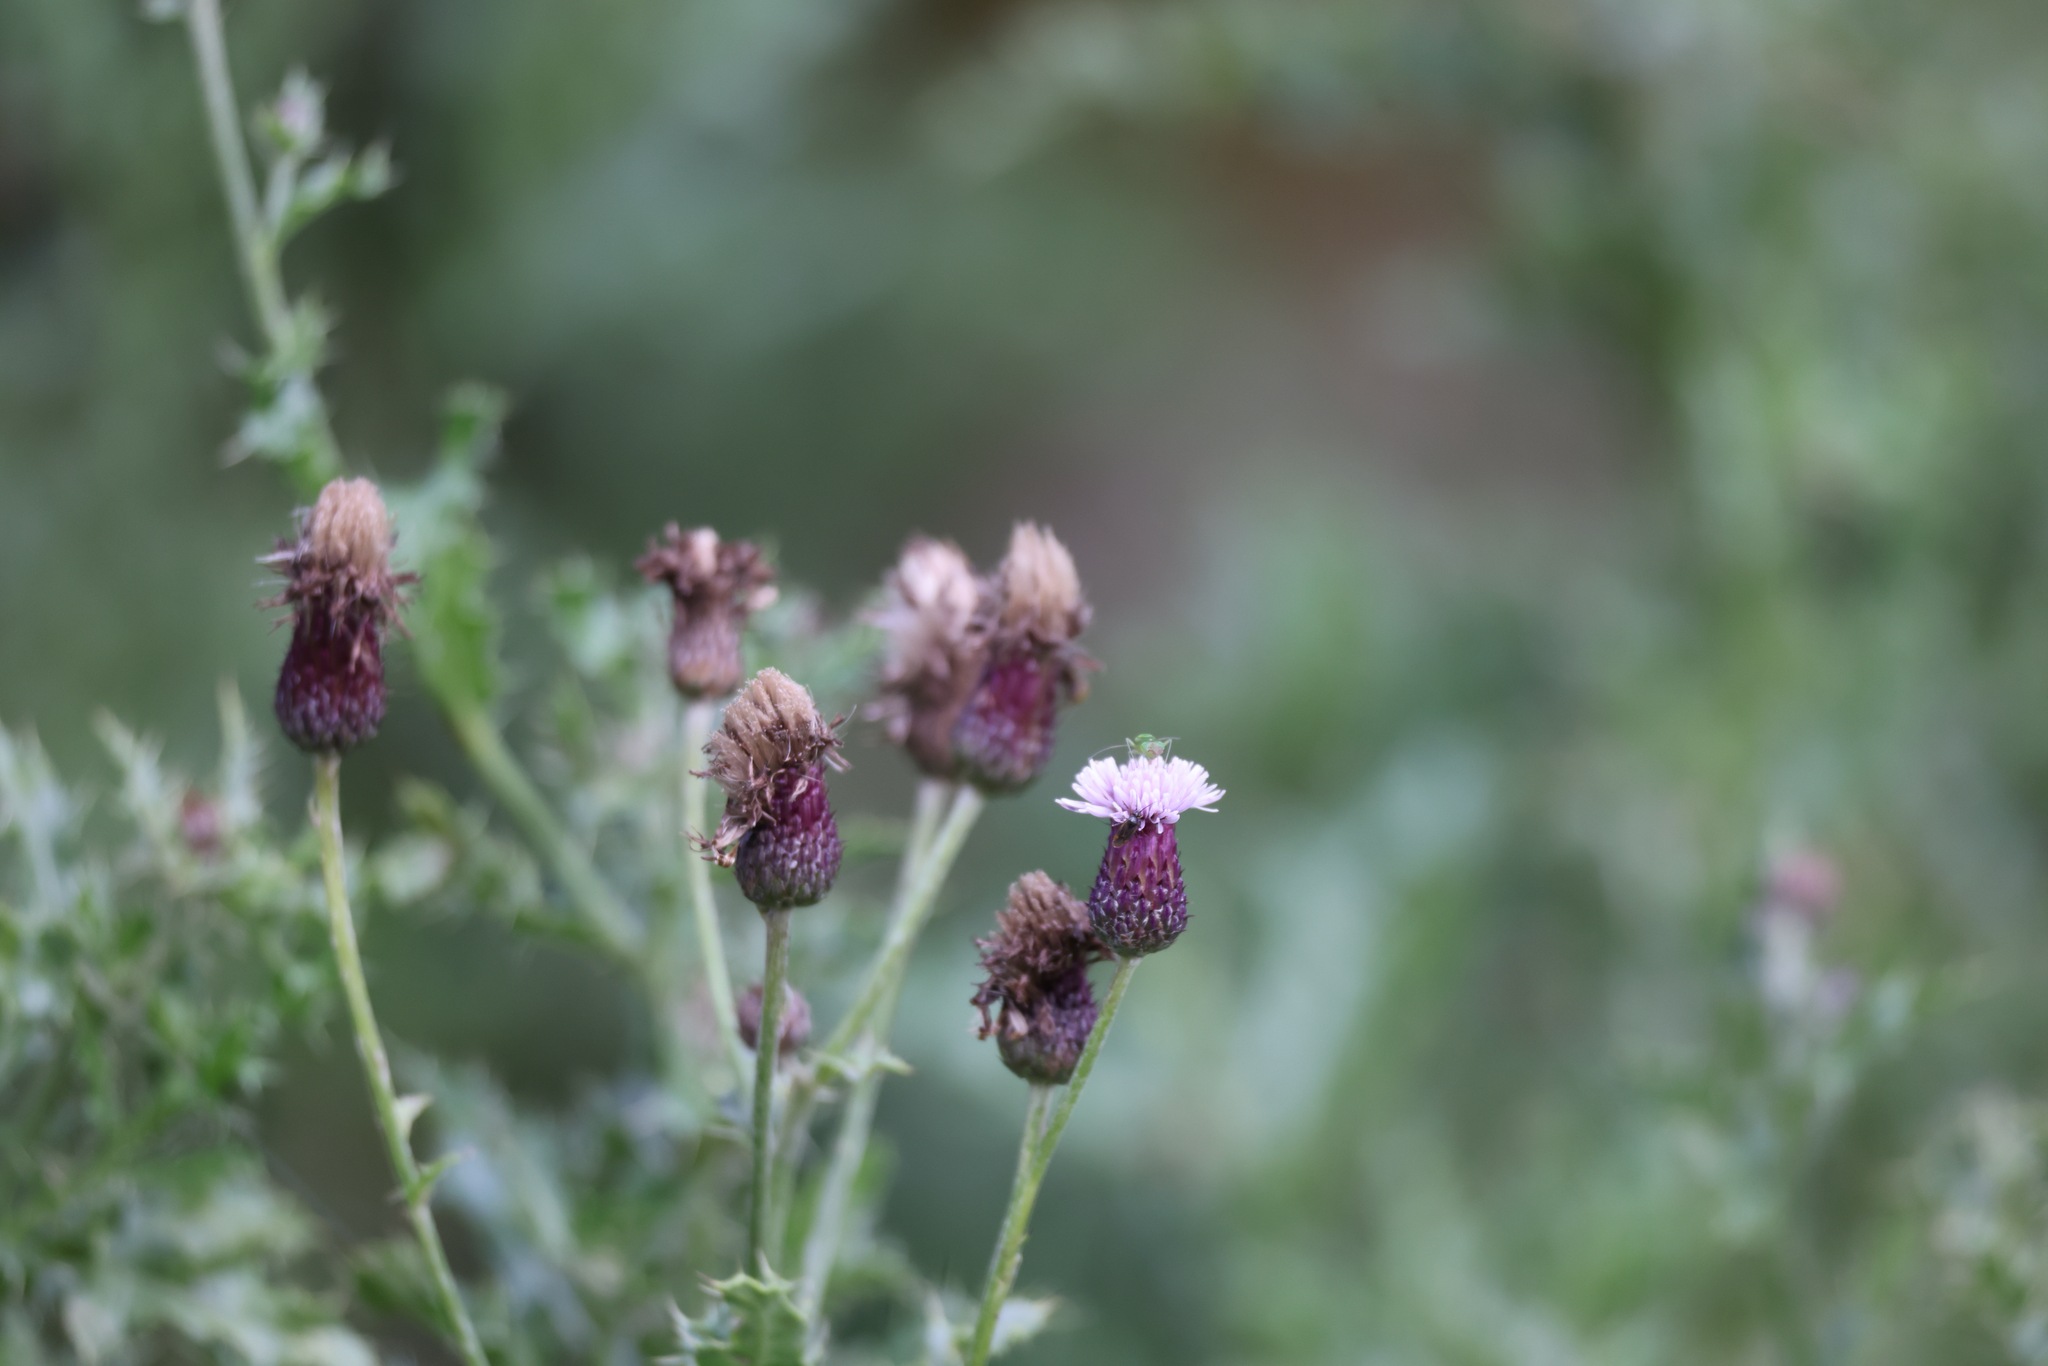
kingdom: Plantae
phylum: Tracheophyta
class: Magnoliopsida
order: Asterales
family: Asteraceae
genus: Cirsium
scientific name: Cirsium arvense
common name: Creeping thistle
